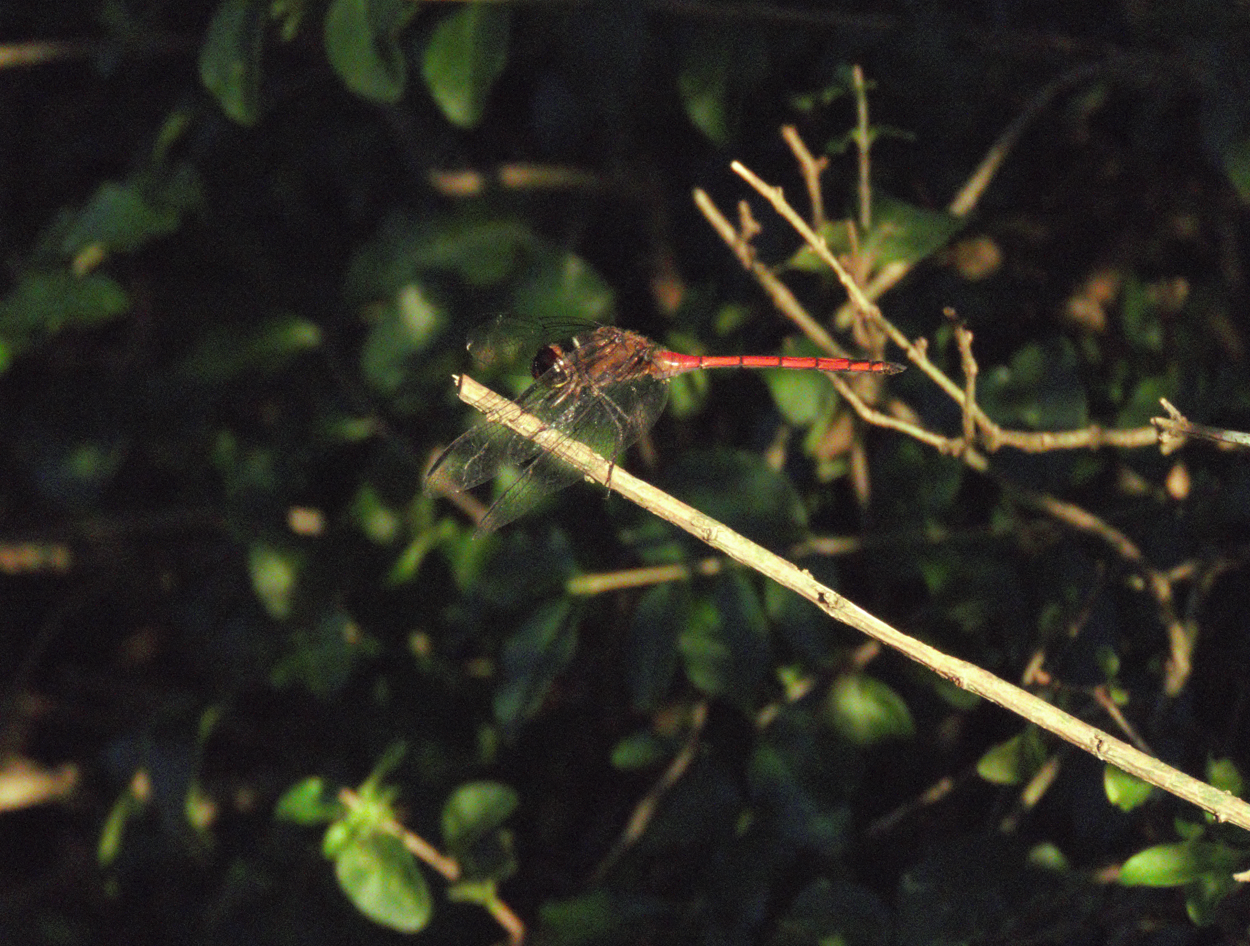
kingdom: Animalia
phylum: Arthropoda
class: Insecta
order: Odonata
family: Libellulidae
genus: Orthemis
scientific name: Orthemis ambinigra
